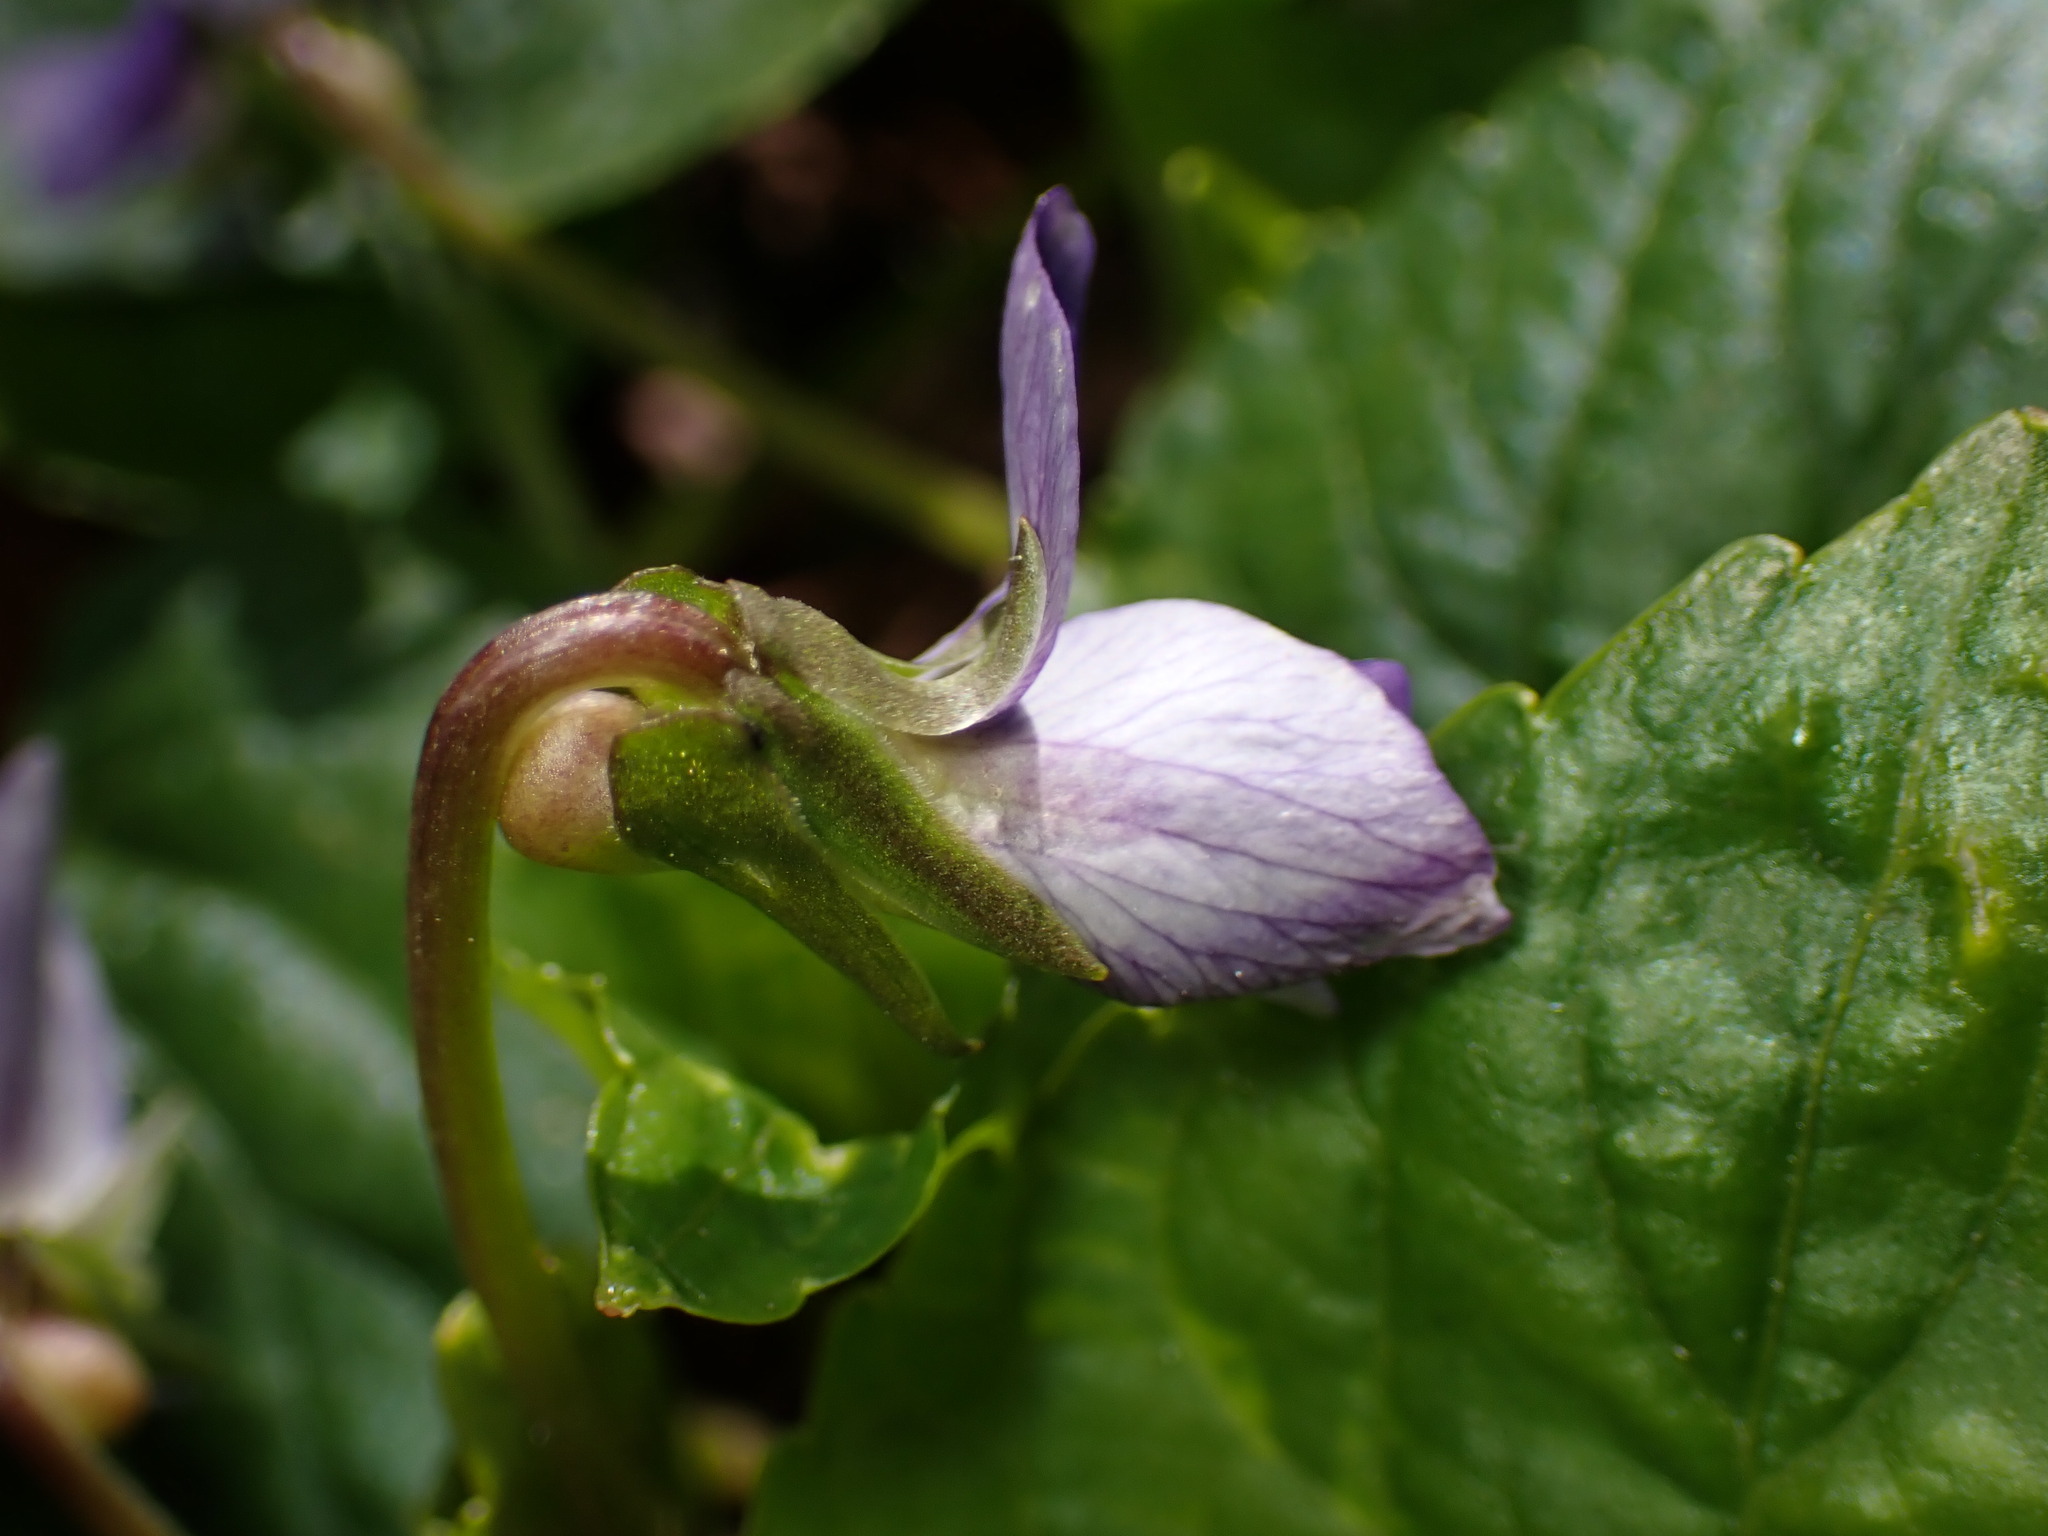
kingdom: Plantae
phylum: Tracheophyta
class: Magnoliopsida
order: Malpighiales
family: Violaceae
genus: Viola
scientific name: Viola sororia
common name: Dooryard violet
